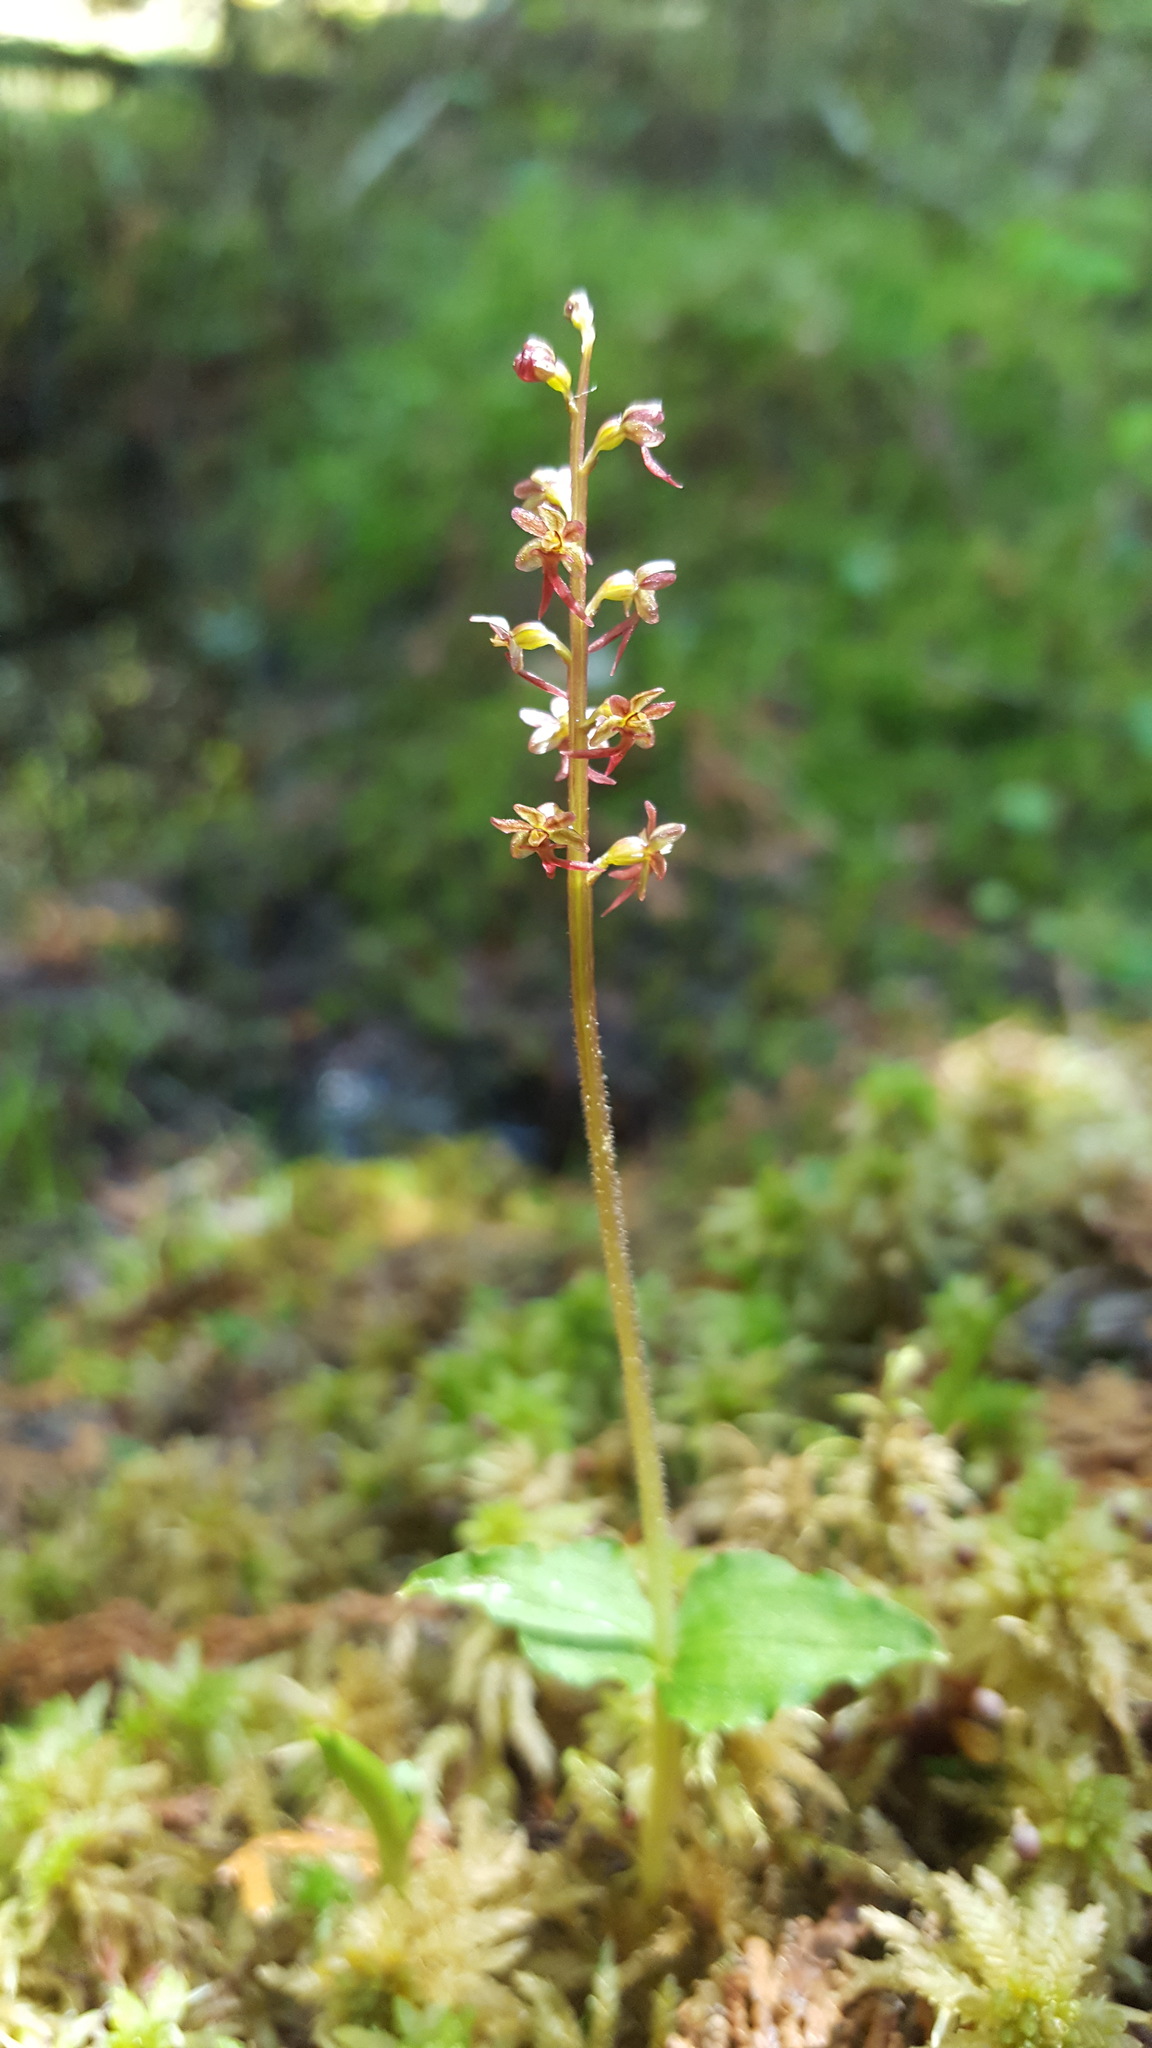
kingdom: Plantae
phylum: Tracheophyta
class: Liliopsida
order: Asparagales
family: Orchidaceae
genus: Neottia
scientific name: Neottia cordata
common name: Lesser twayblade
